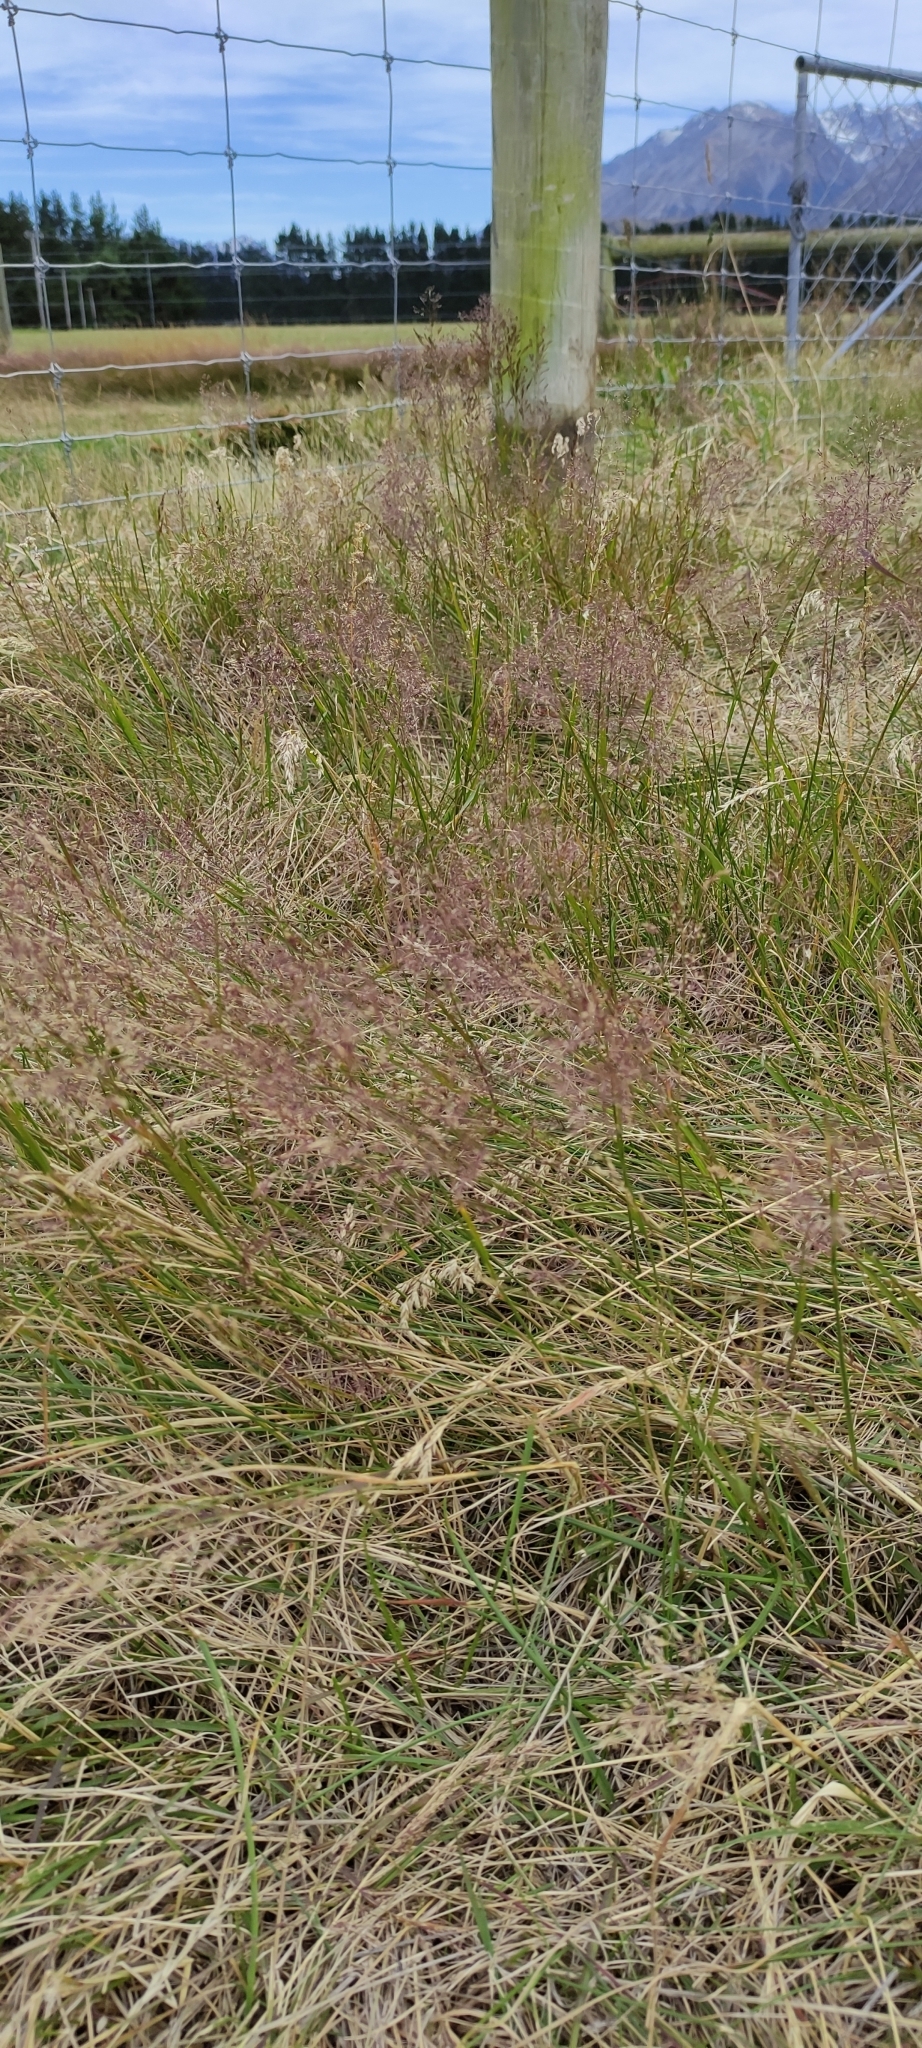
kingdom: Plantae
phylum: Tracheophyta
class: Liliopsida
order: Poales
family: Poaceae
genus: Agrostis
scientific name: Agrostis capillaris
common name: Colonial bentgrass
